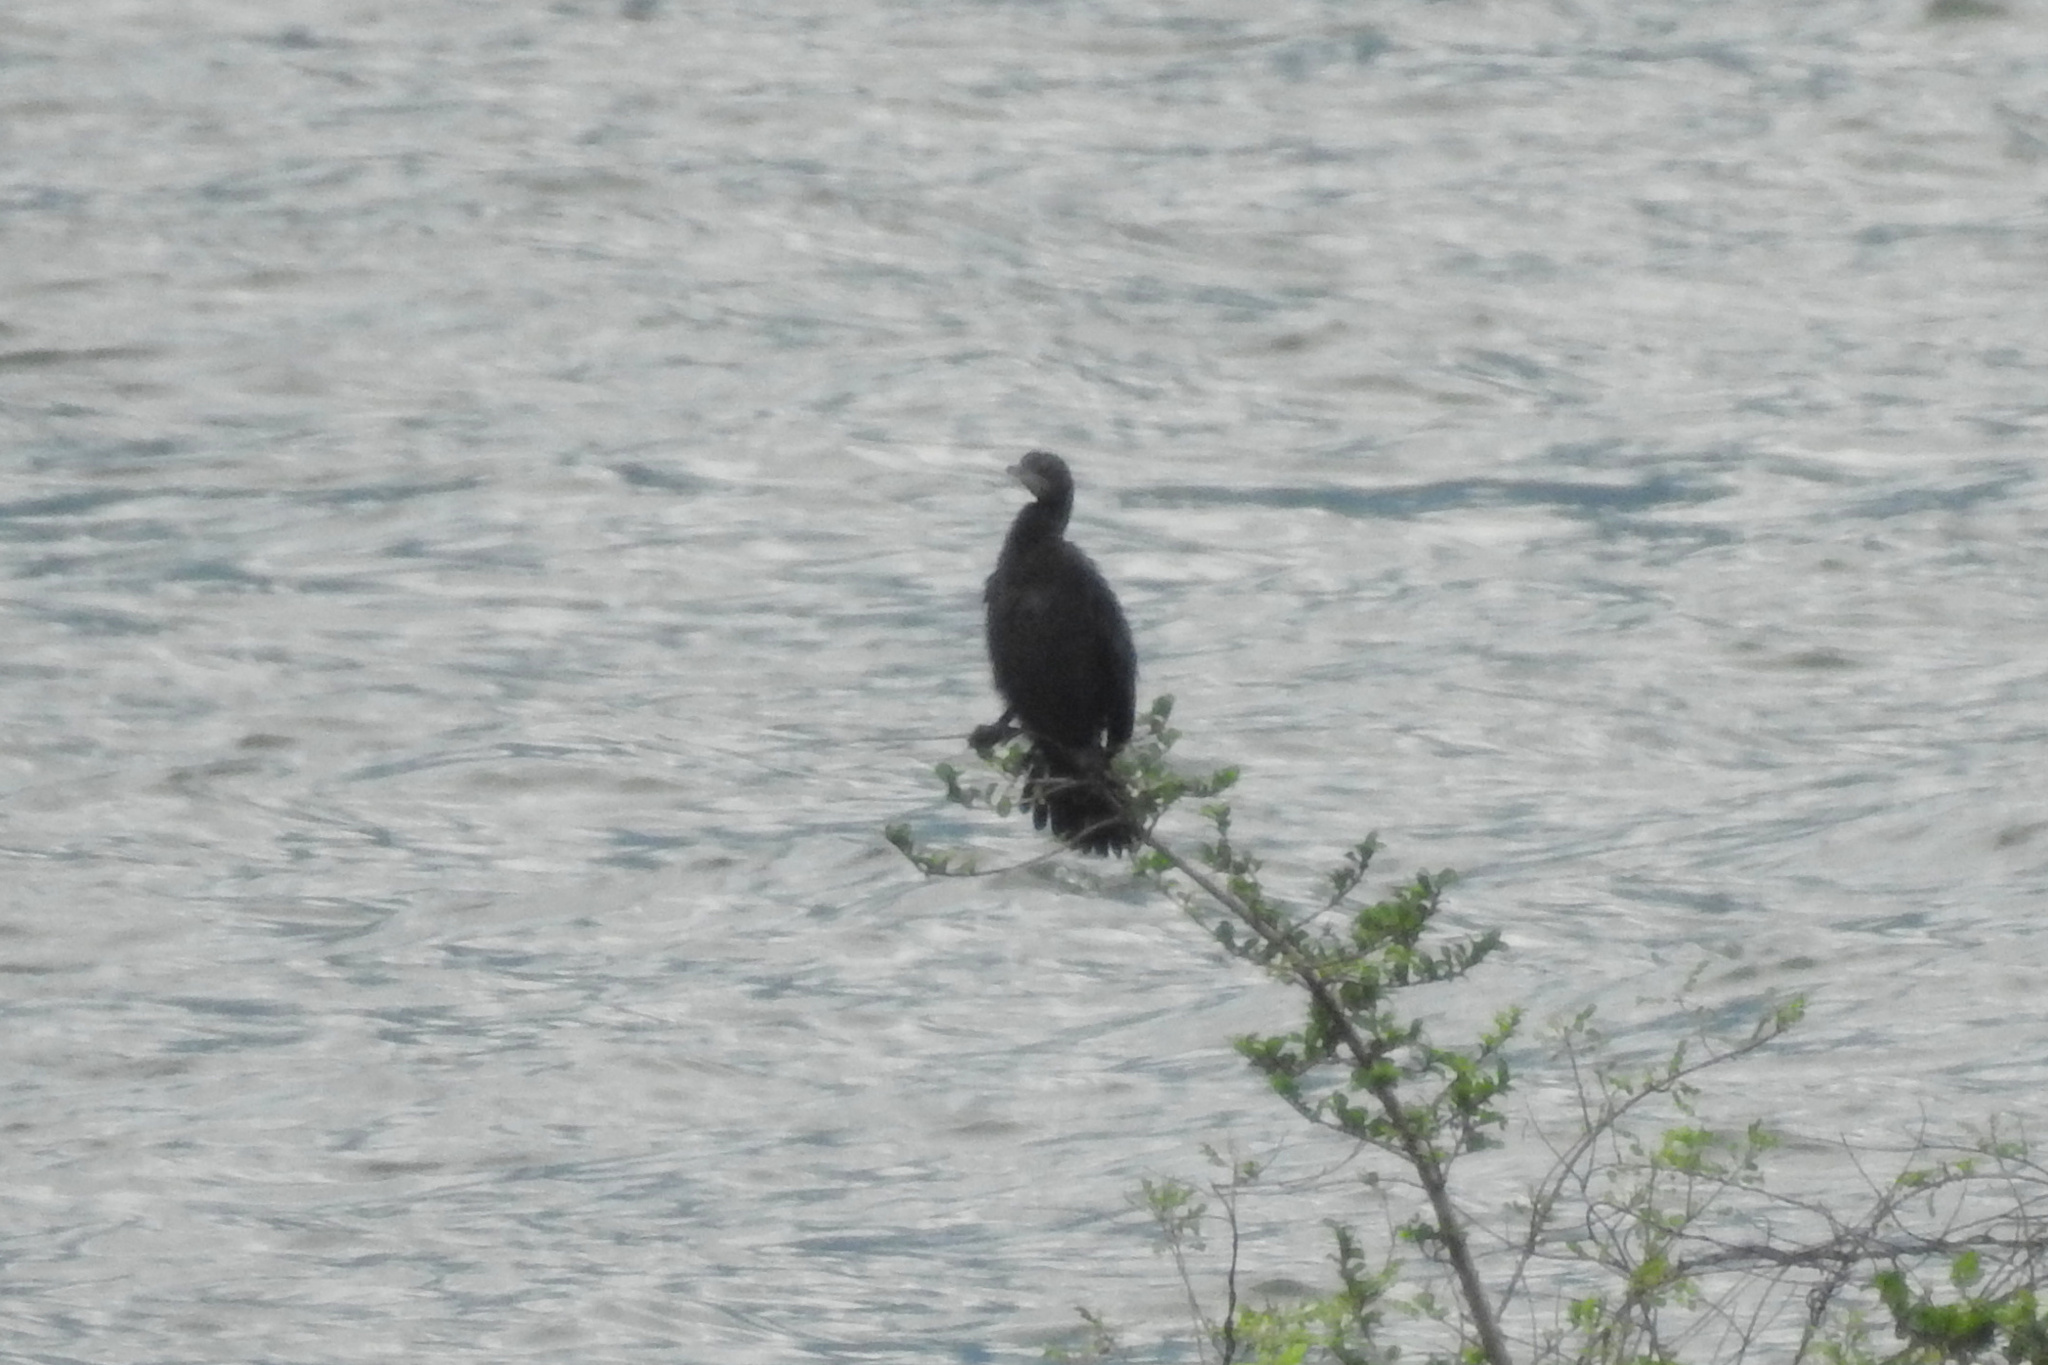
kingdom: Animalia
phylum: Chordata
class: Aves
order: Suliformes
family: Phalacrocoracidae
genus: Microcarbo
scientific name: Microcarbo niger
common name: Little cormorant
